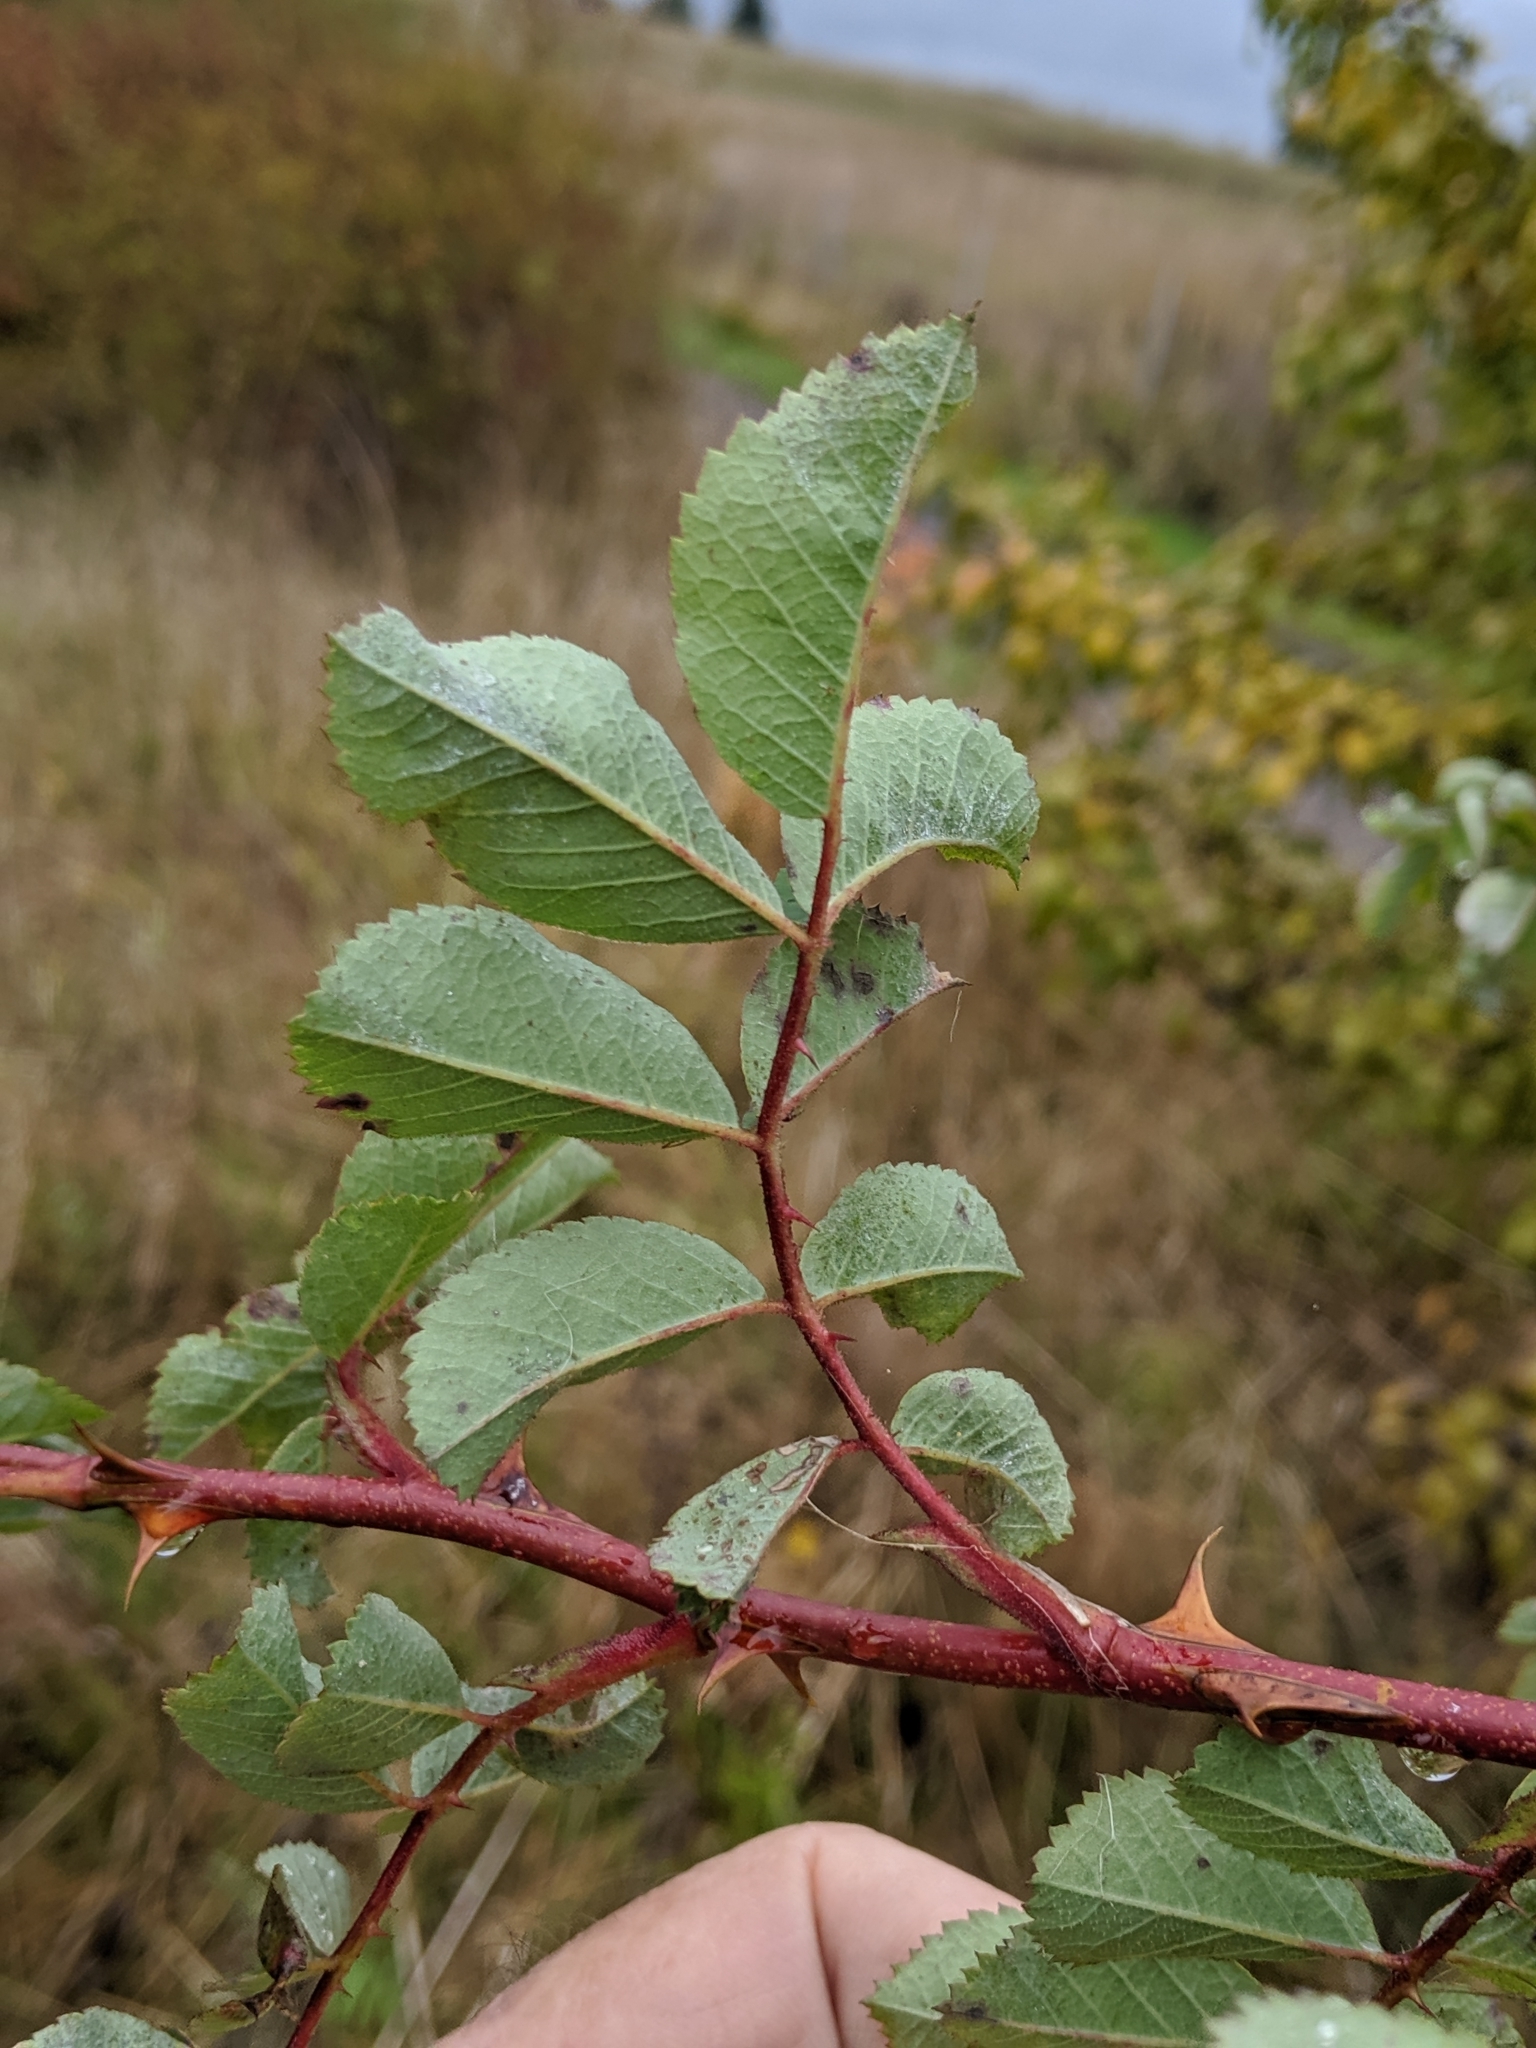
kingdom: Plantae
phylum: Tracheophyta
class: Magnoliopsida
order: Rosales
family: Rosaceae
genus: Rosa
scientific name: Rosa nutkana
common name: Nootka rose
